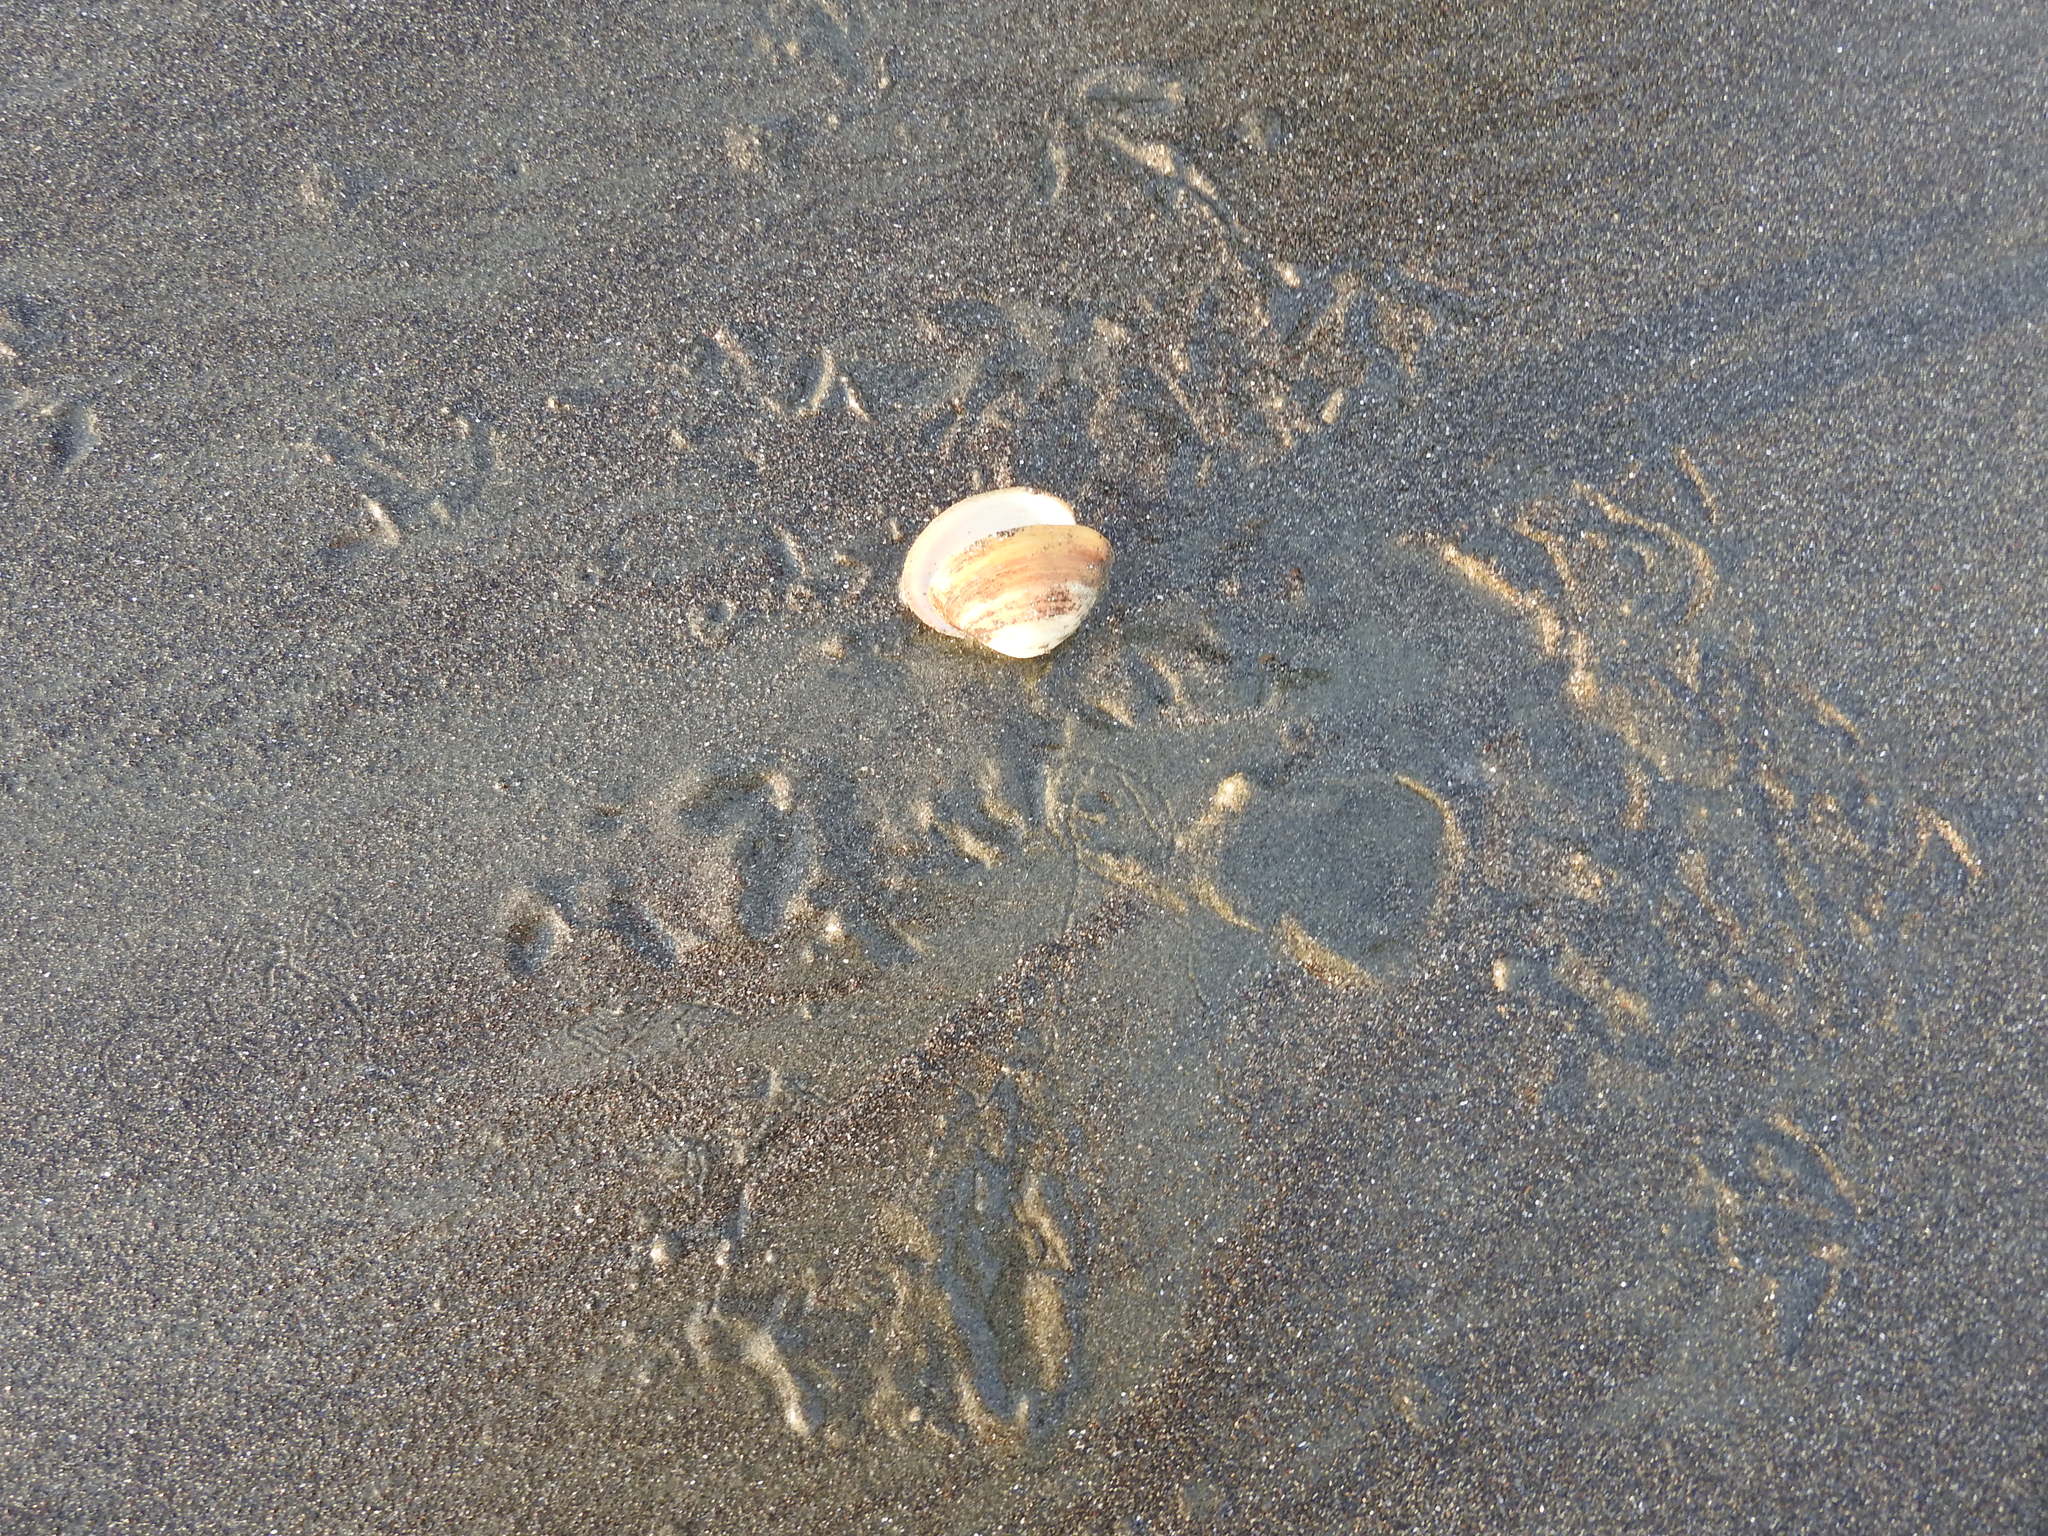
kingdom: Animalia
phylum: Mollusca
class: Bivalvia
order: Venerida
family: Mactridae
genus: Spisula
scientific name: Spisula discors
